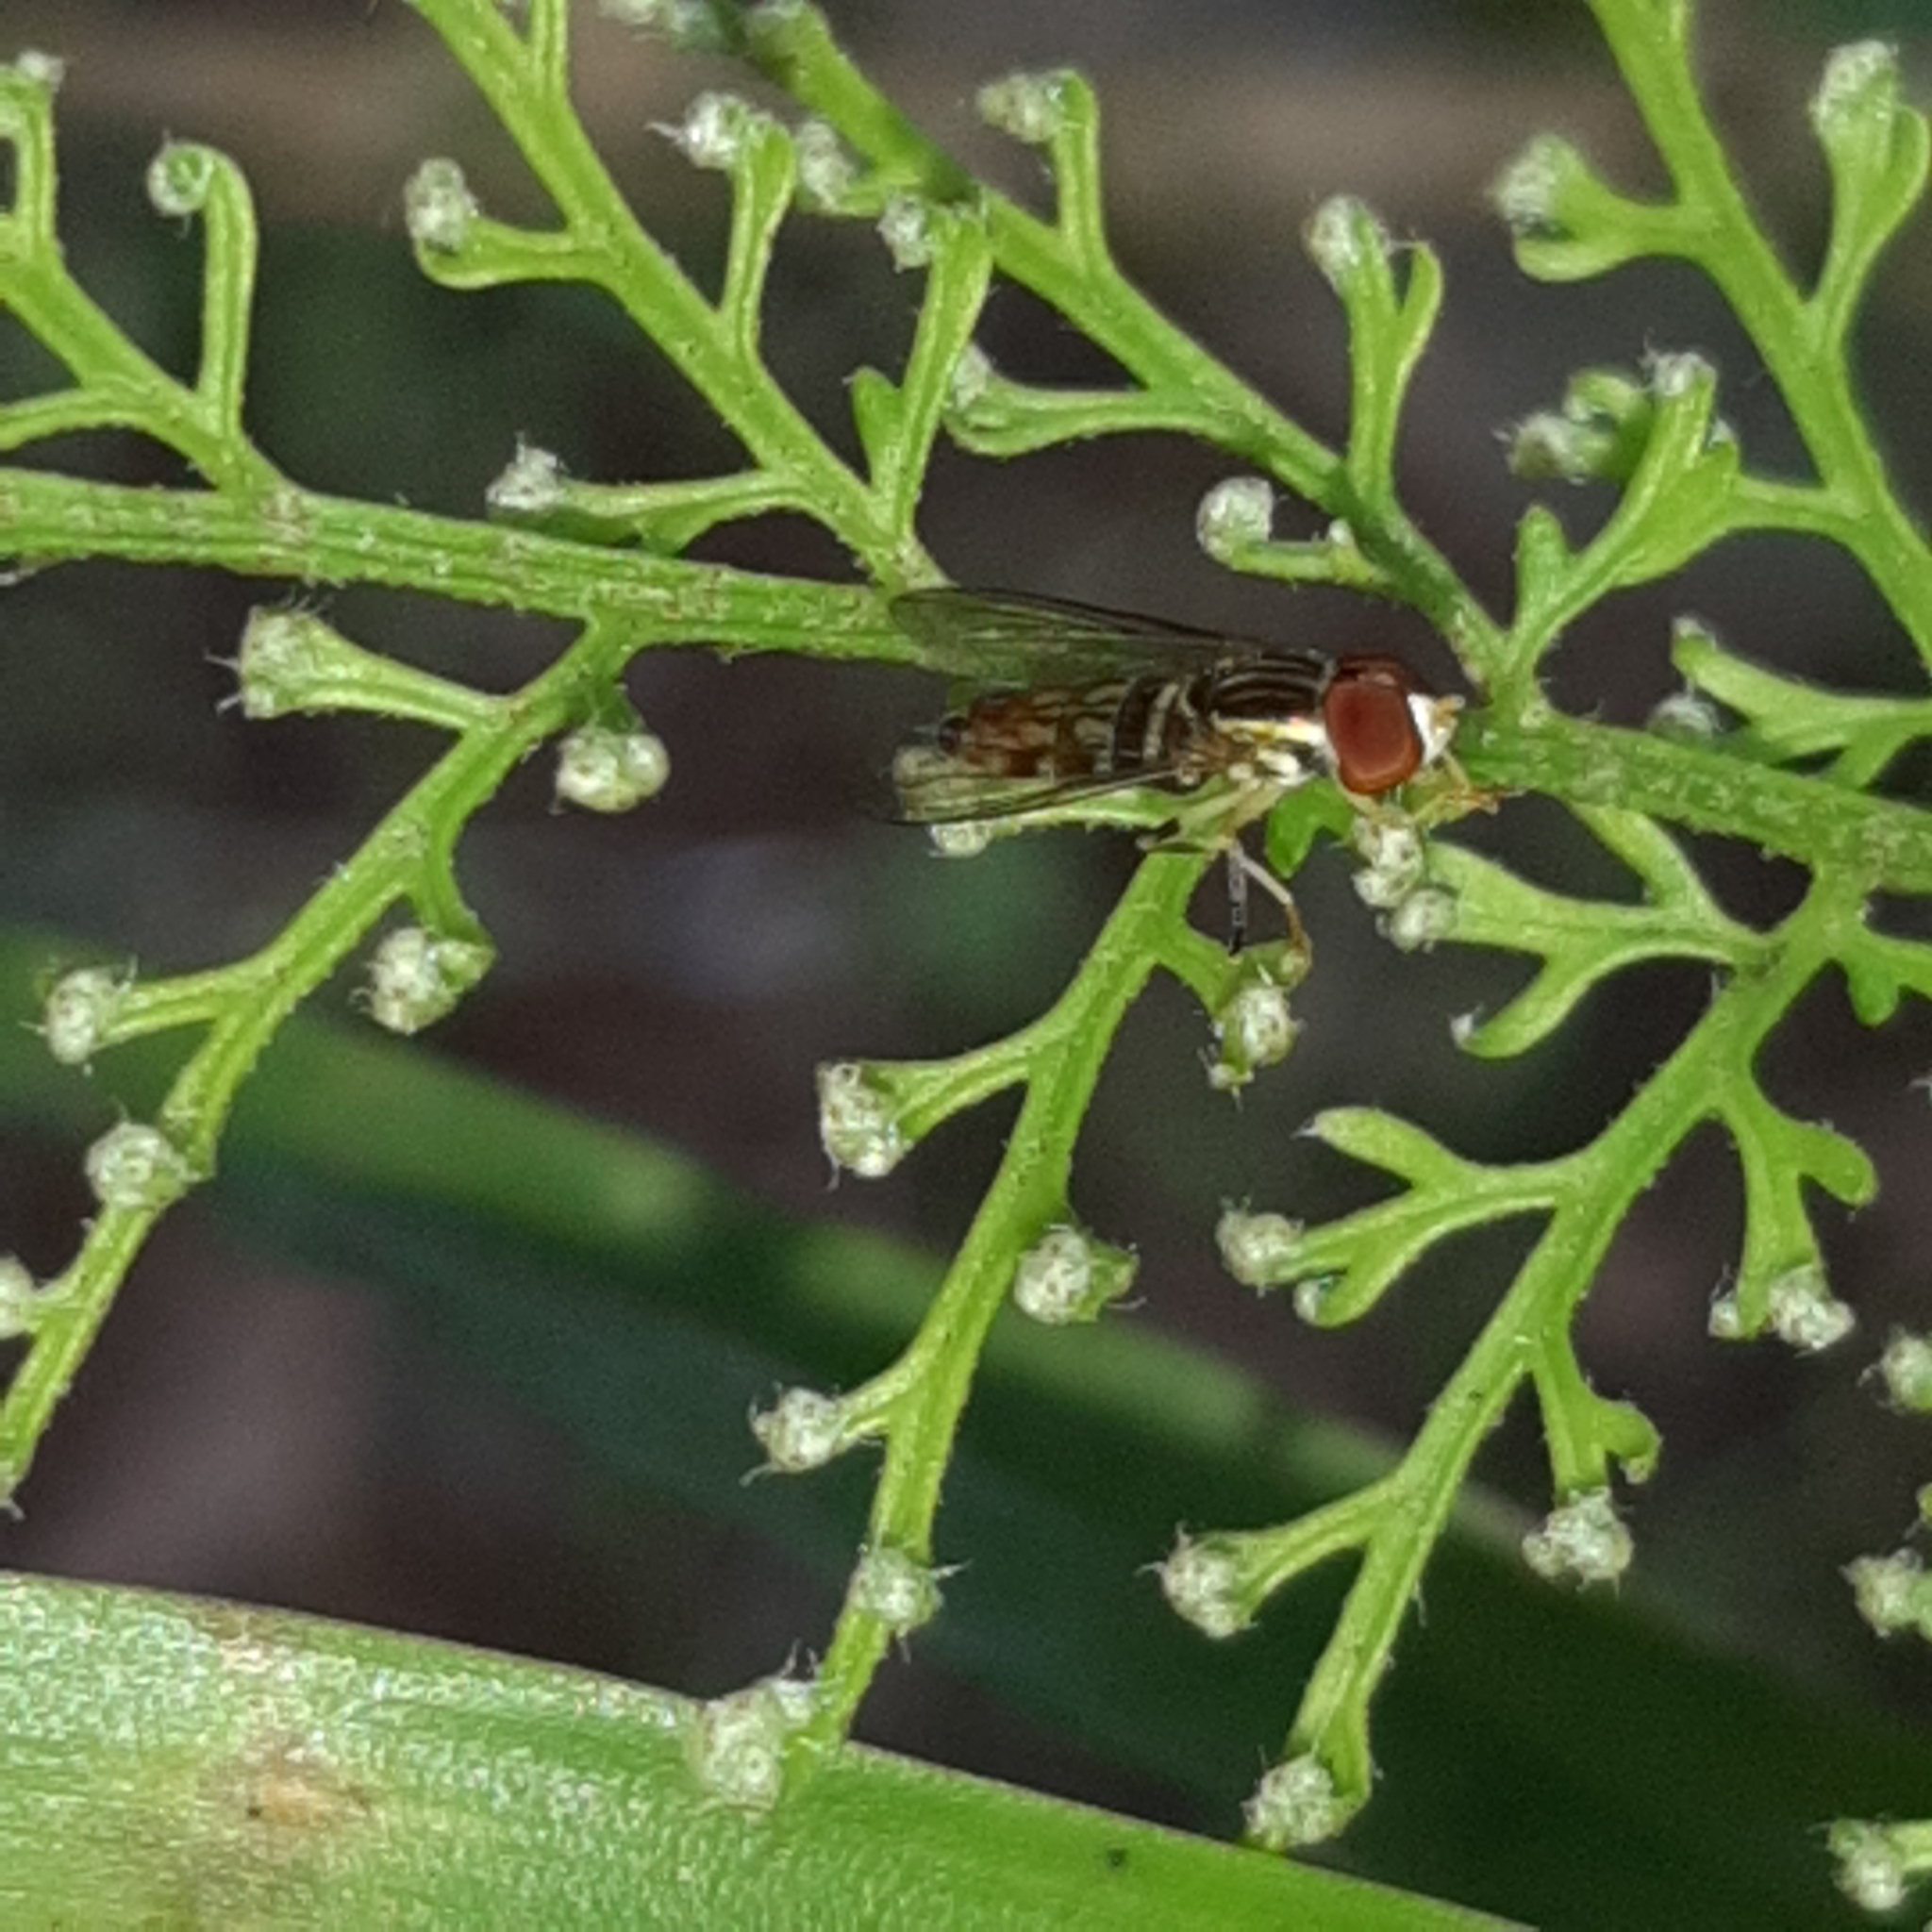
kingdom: Animalia
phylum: Arthropoda
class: Insecta
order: Diptera
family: Syrphidae
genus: Toxomerus
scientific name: Toxomerus pictus
